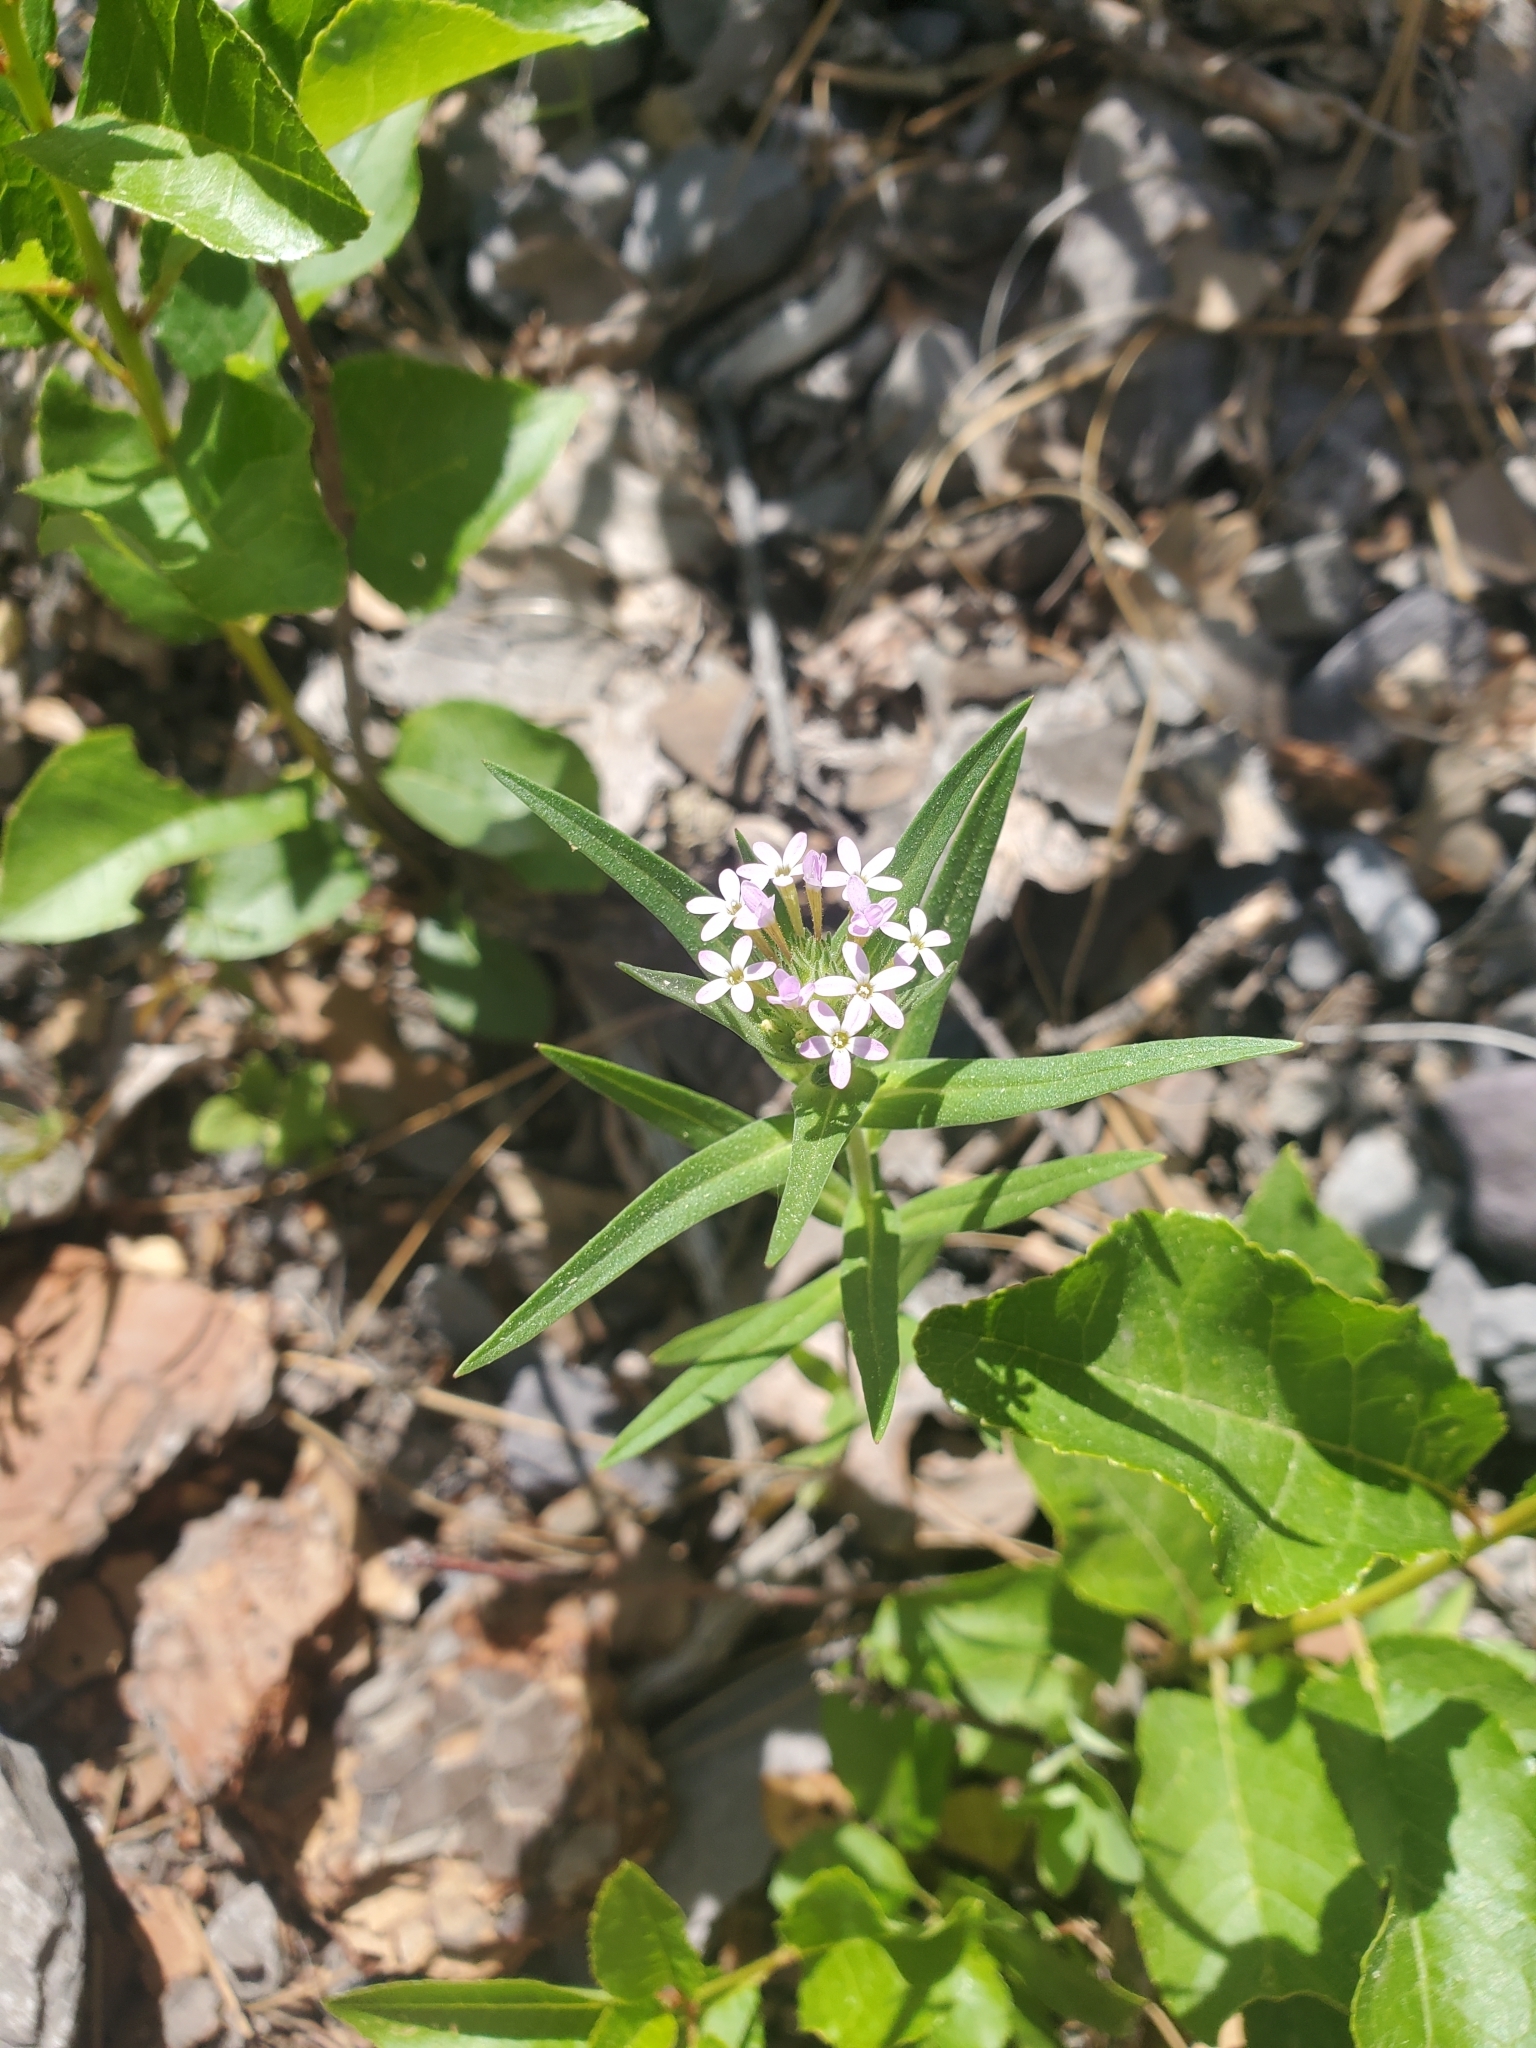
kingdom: Plantae
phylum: Tracheophyta
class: Magnoliopsida
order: Ericales
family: Polemoniaceae
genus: Collomia
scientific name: Collomia linearis
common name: Tiny trumpet
